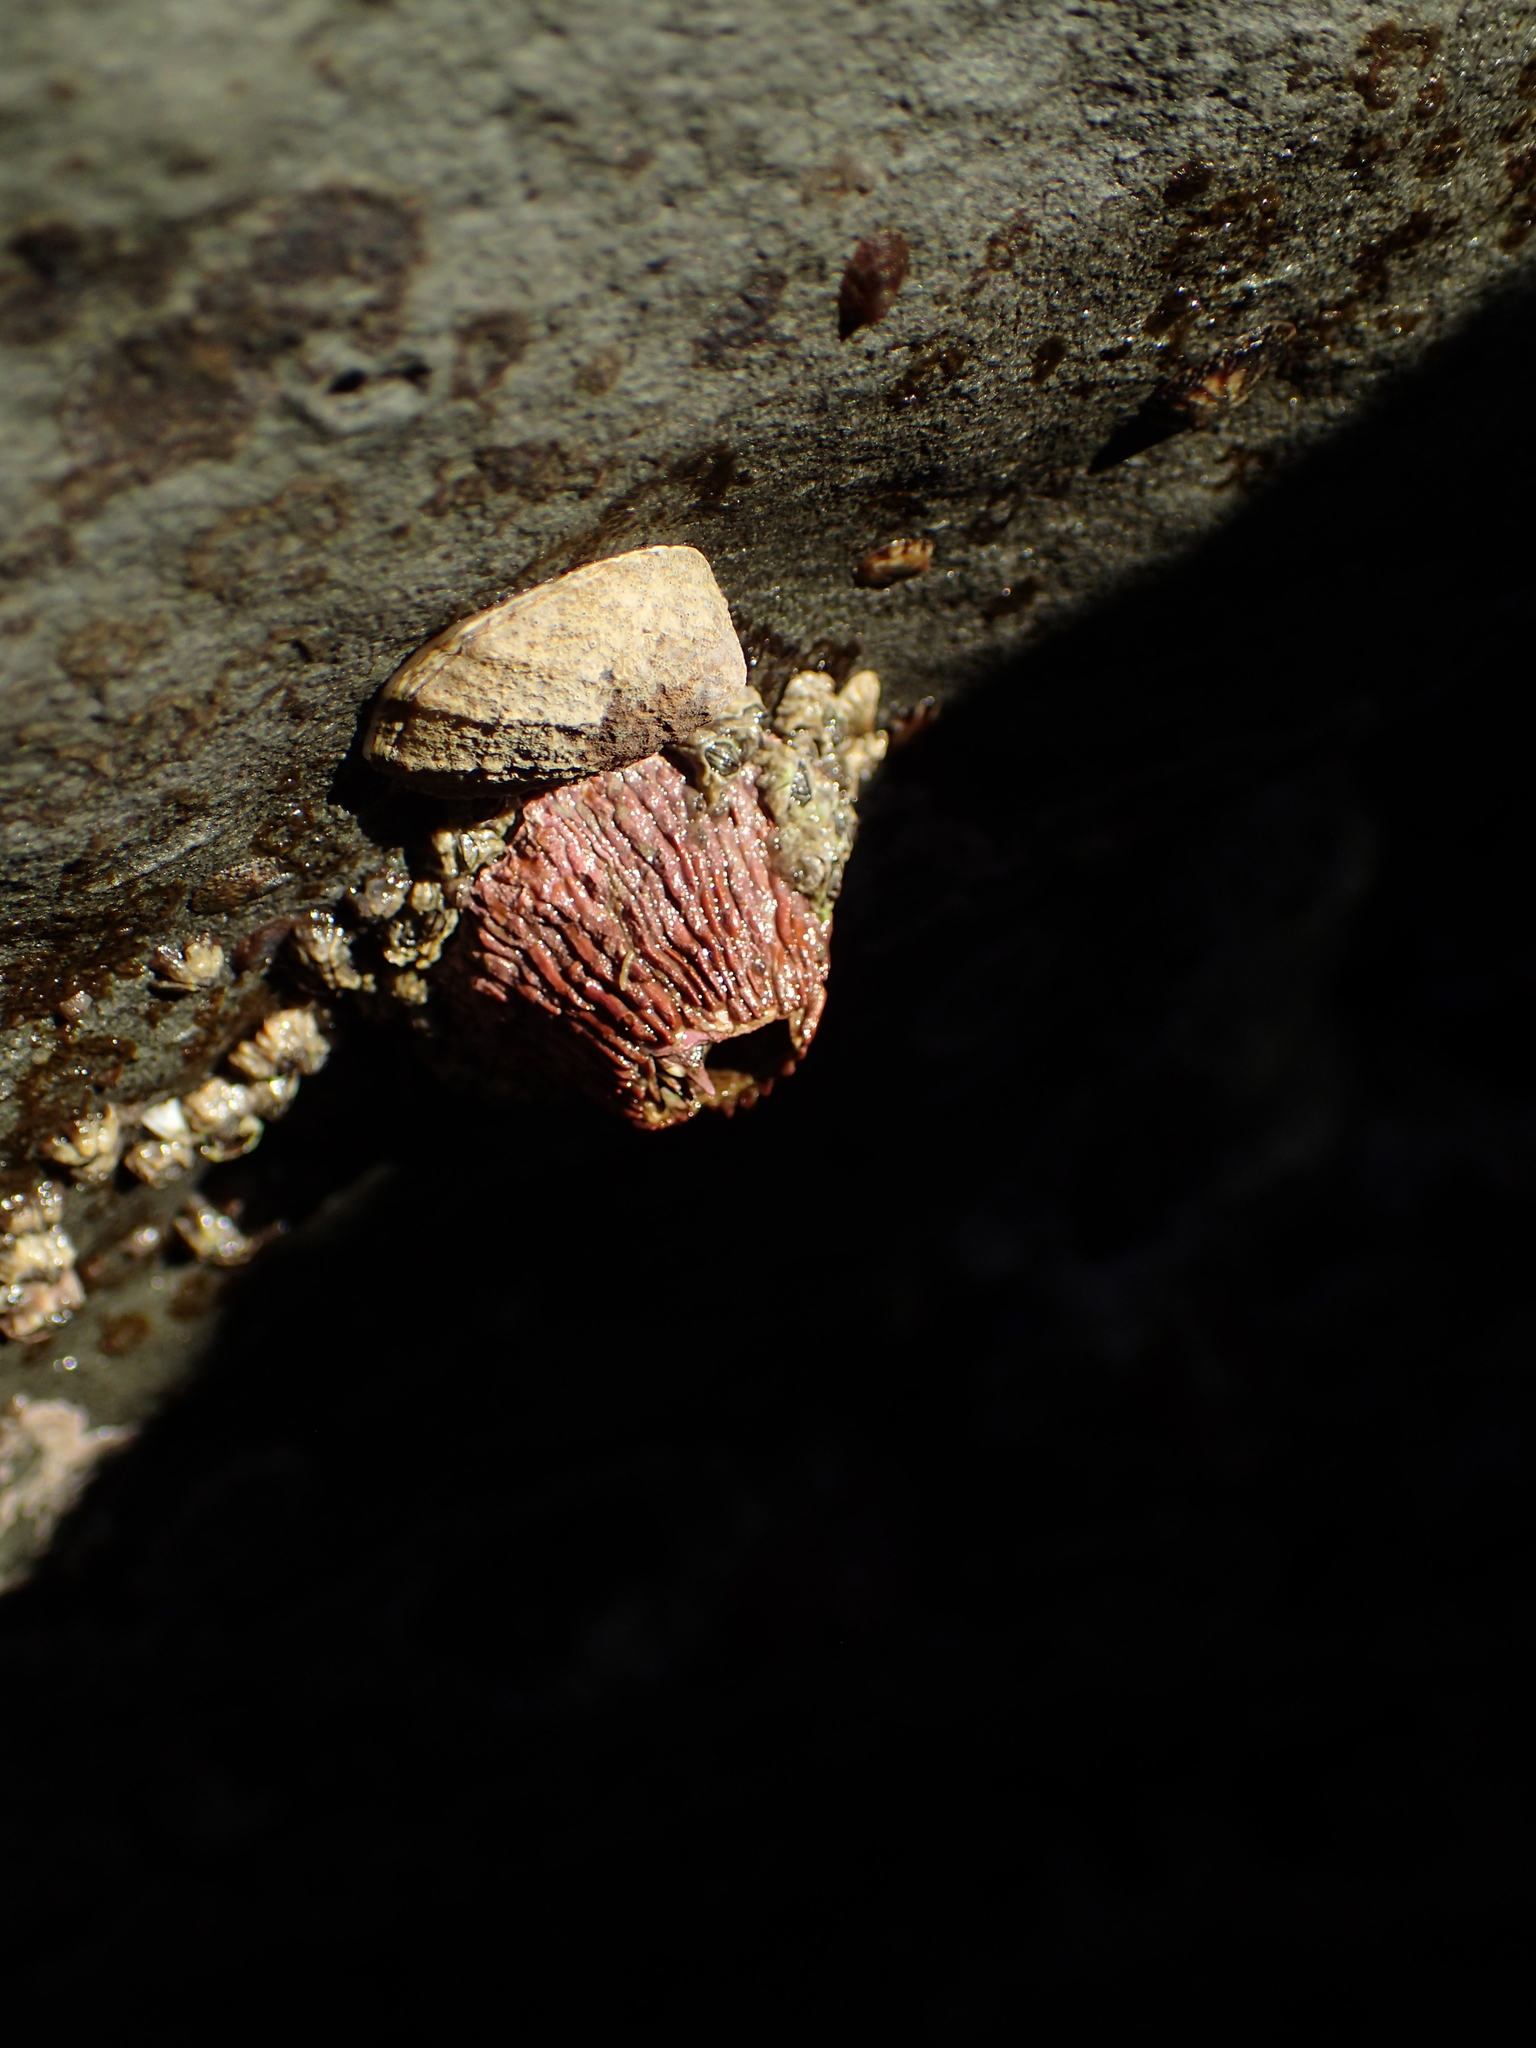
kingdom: Animalia
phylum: Arthropoda
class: Maxillopoda
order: Sessilia
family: Tetraclitidae
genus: Tetraclita
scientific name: Tetraclita rubescens
